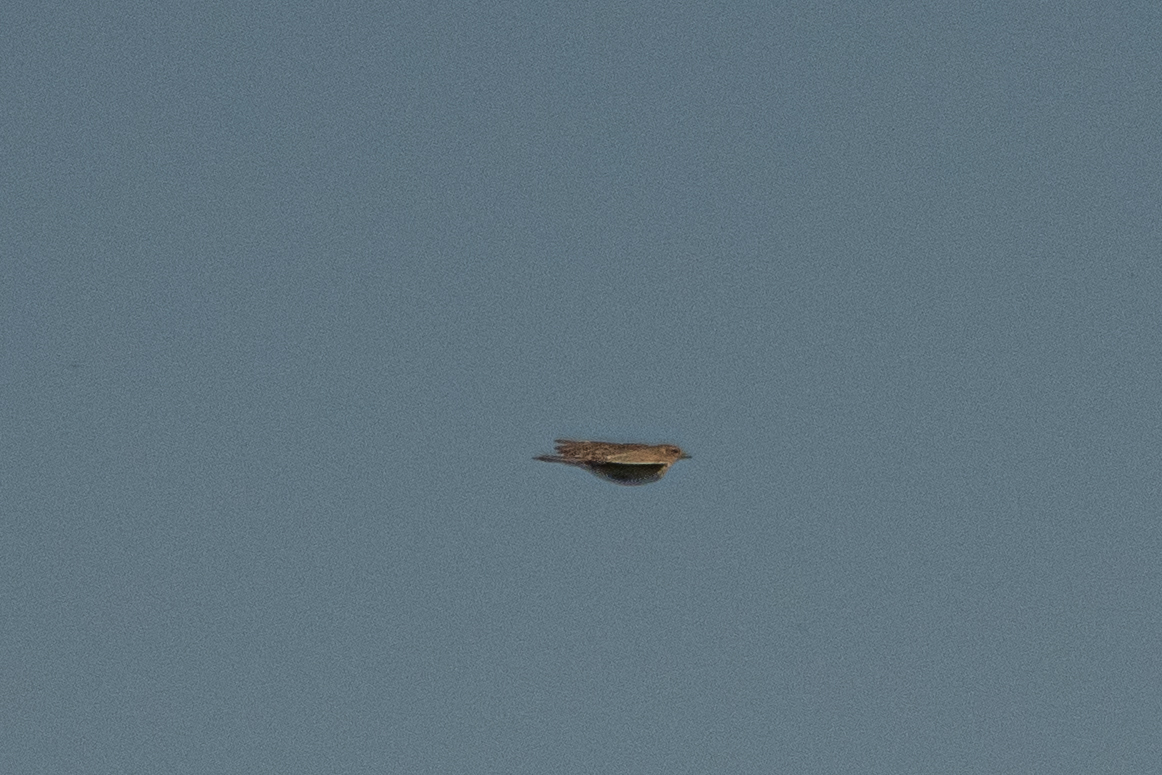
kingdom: Animalia
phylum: Chordata
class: Aves
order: Passeriformes
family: Alaudidae
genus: Alauda
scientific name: Alauda arvensis
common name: Eurasian skylark
